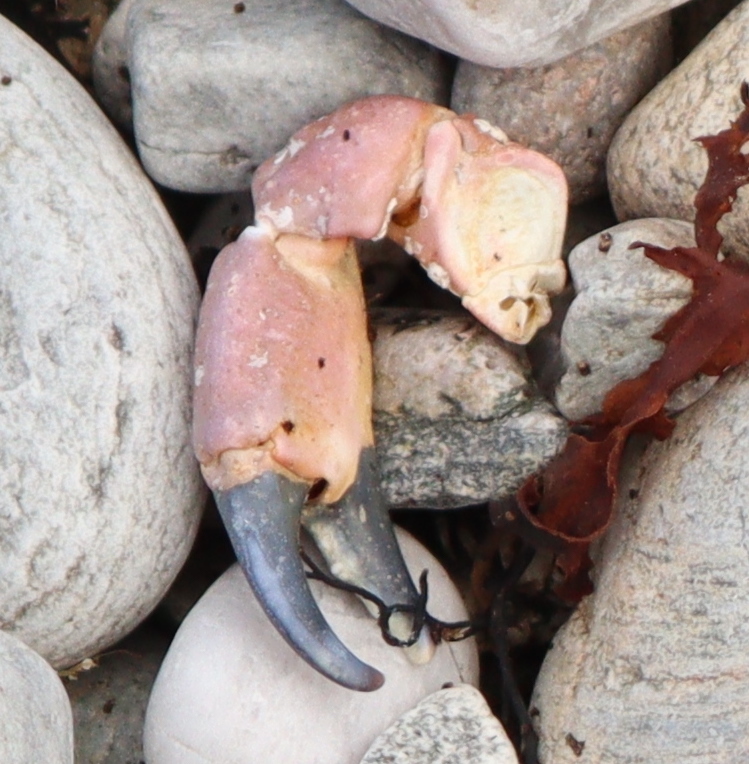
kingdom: Animalia
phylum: Arthropoda
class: Malacostraca
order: Decapoda
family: Cancridae
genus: Cancer
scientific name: Cancer pagurus
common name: Edible crab
